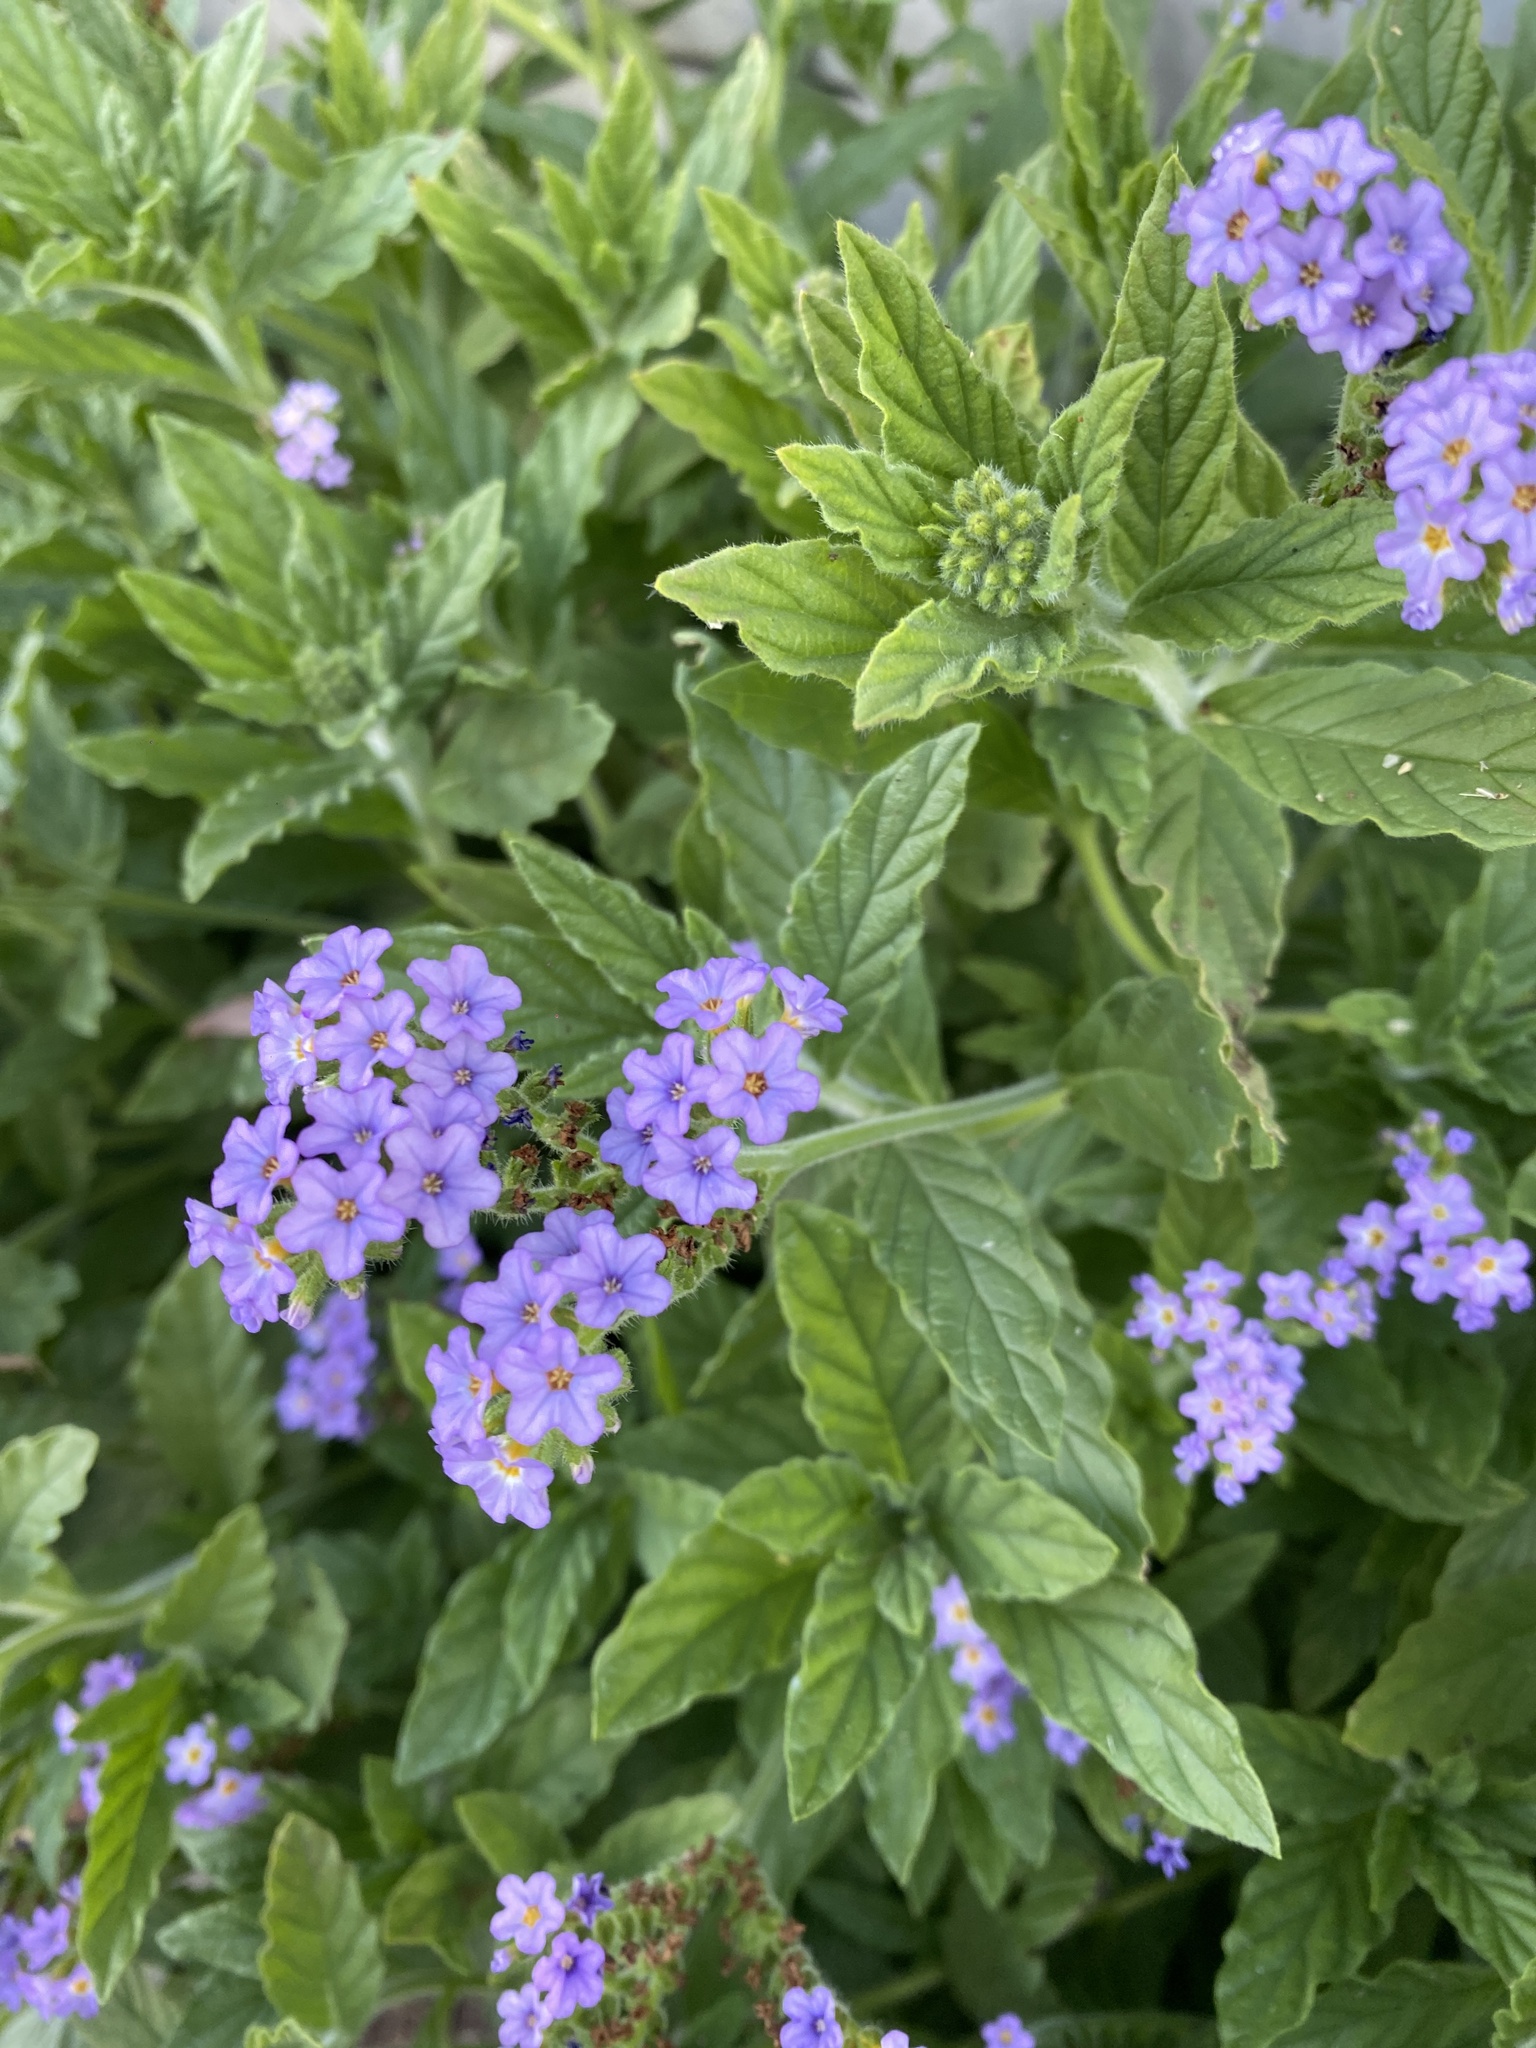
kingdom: Plantae
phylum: Tracheophyta
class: Magnoliopsida
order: Boraginales
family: Heliotropiaceae
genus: Heliotropium
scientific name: Heliotropium amplexicaule
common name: Clasping heliotrope
